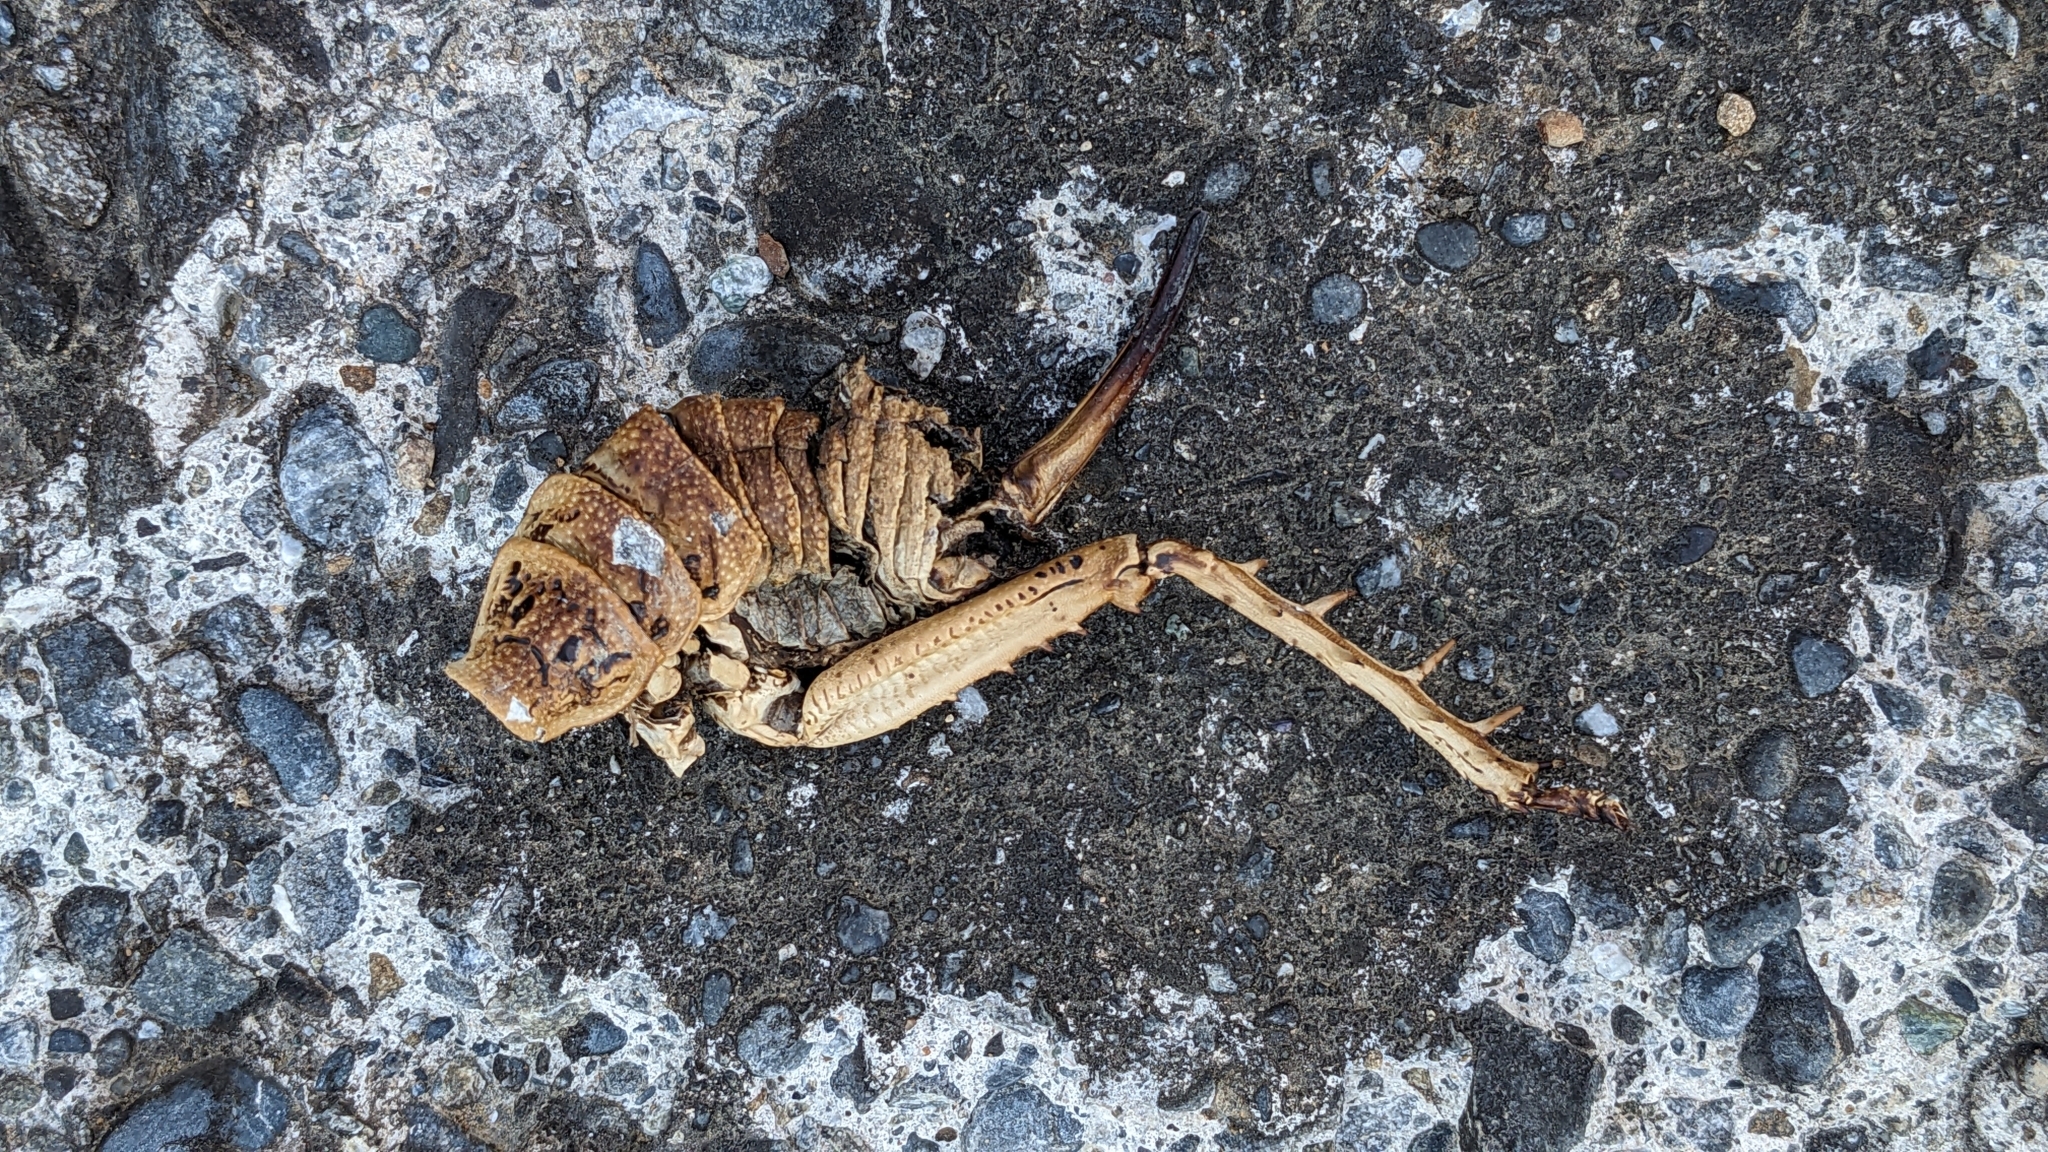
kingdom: Animalia
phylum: Arthropoda
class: Insecta
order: Orthoptera
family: Anostostomatidae
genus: Deinacrida
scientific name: Deinacrida rugosa
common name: Stephens island weta
